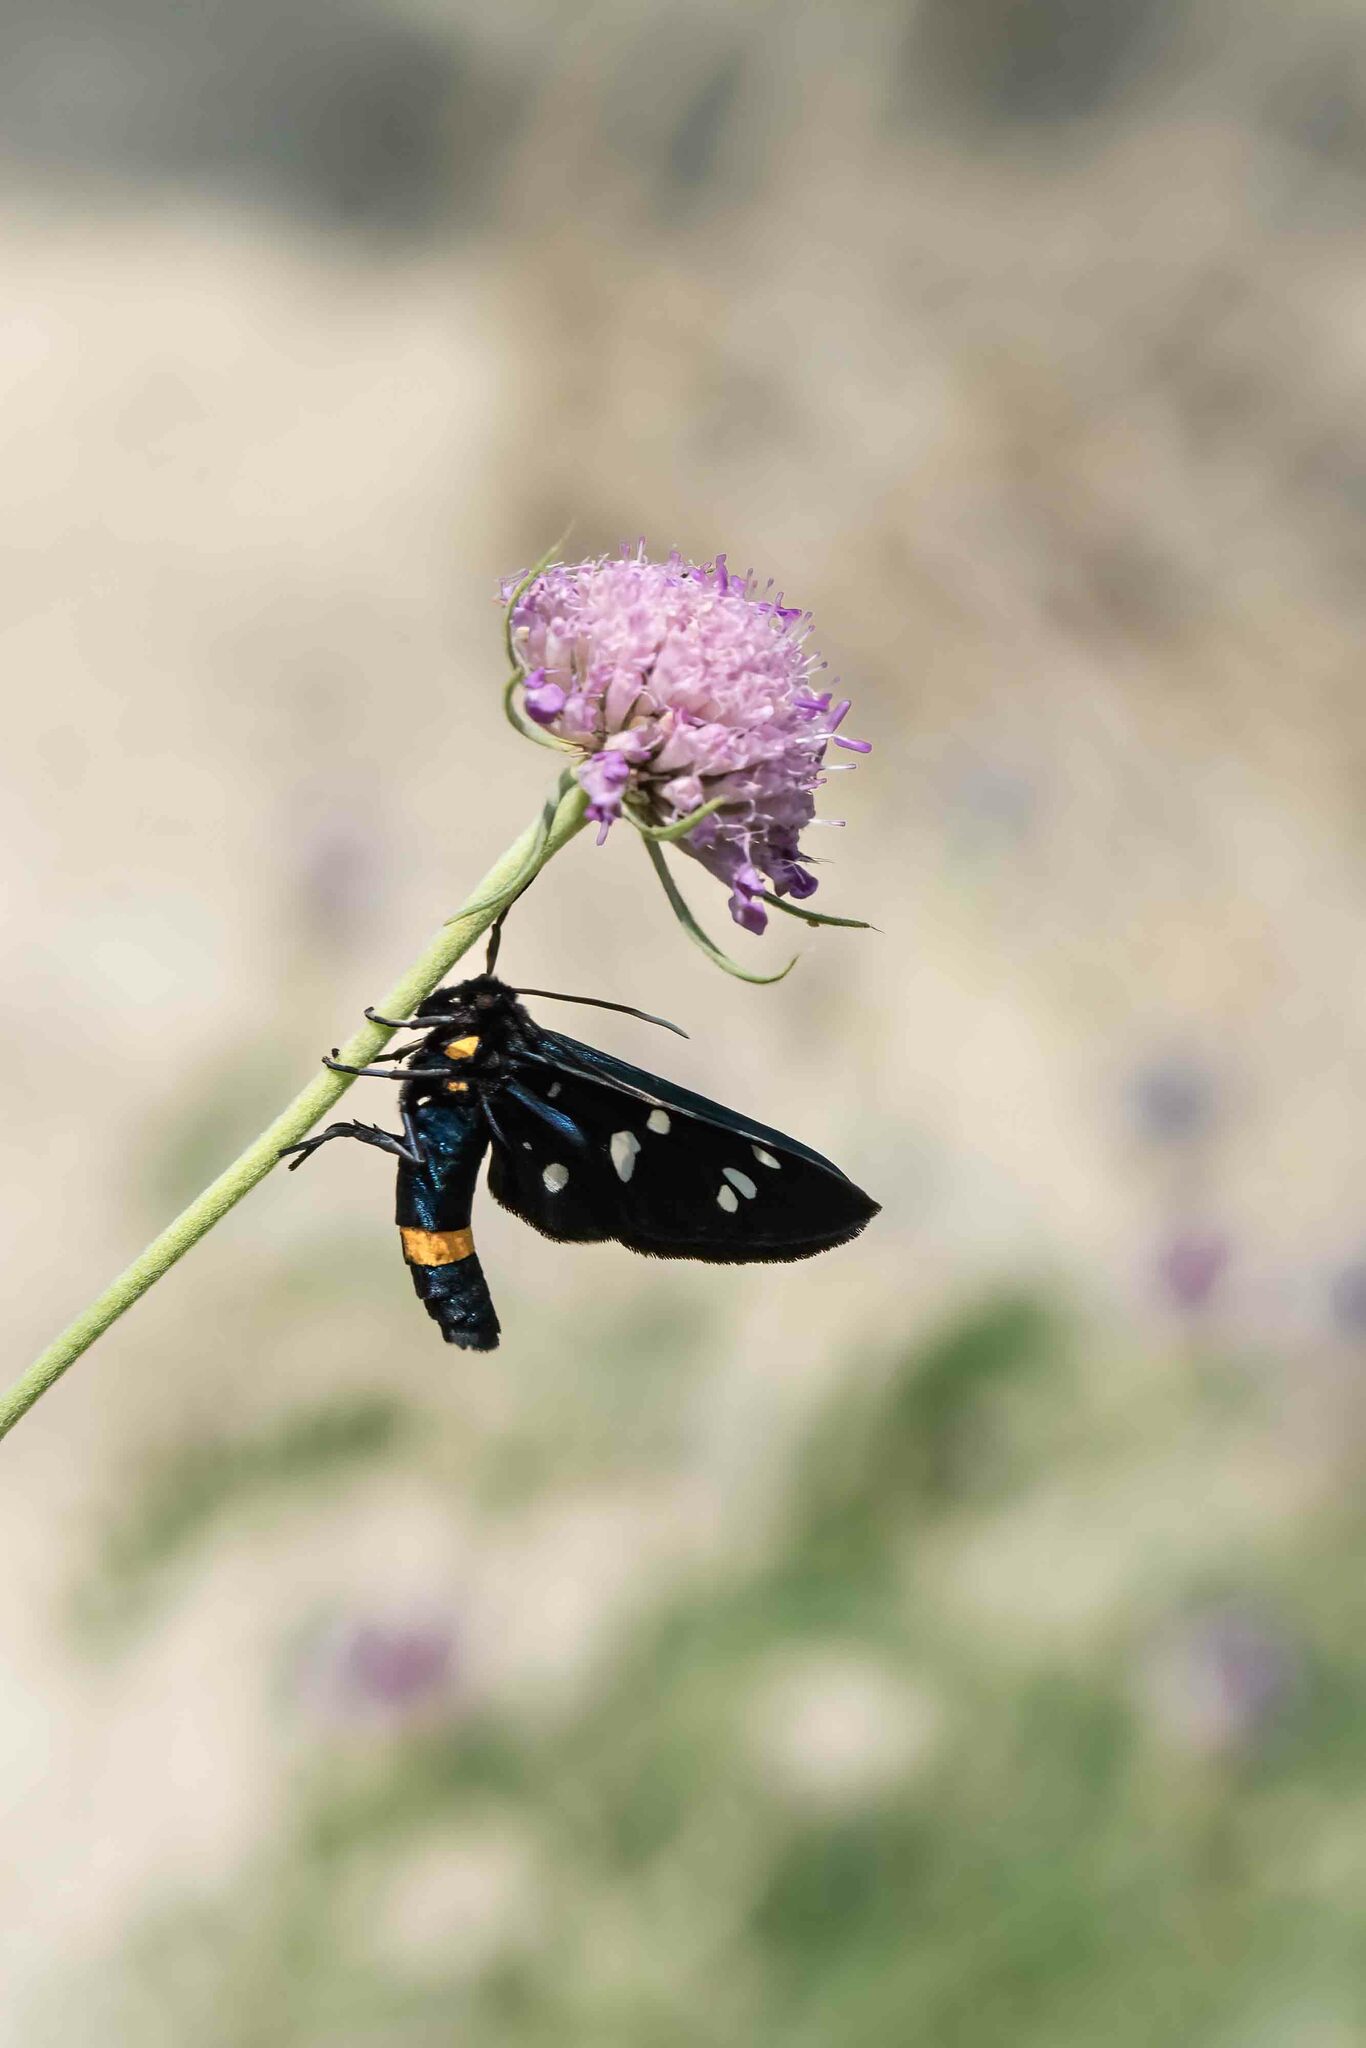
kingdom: Animalia
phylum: Arthropoda
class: Insecta
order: Lepidoptera
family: Erebidae
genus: Amata
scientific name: Amata phegea
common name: Nine-spotted
